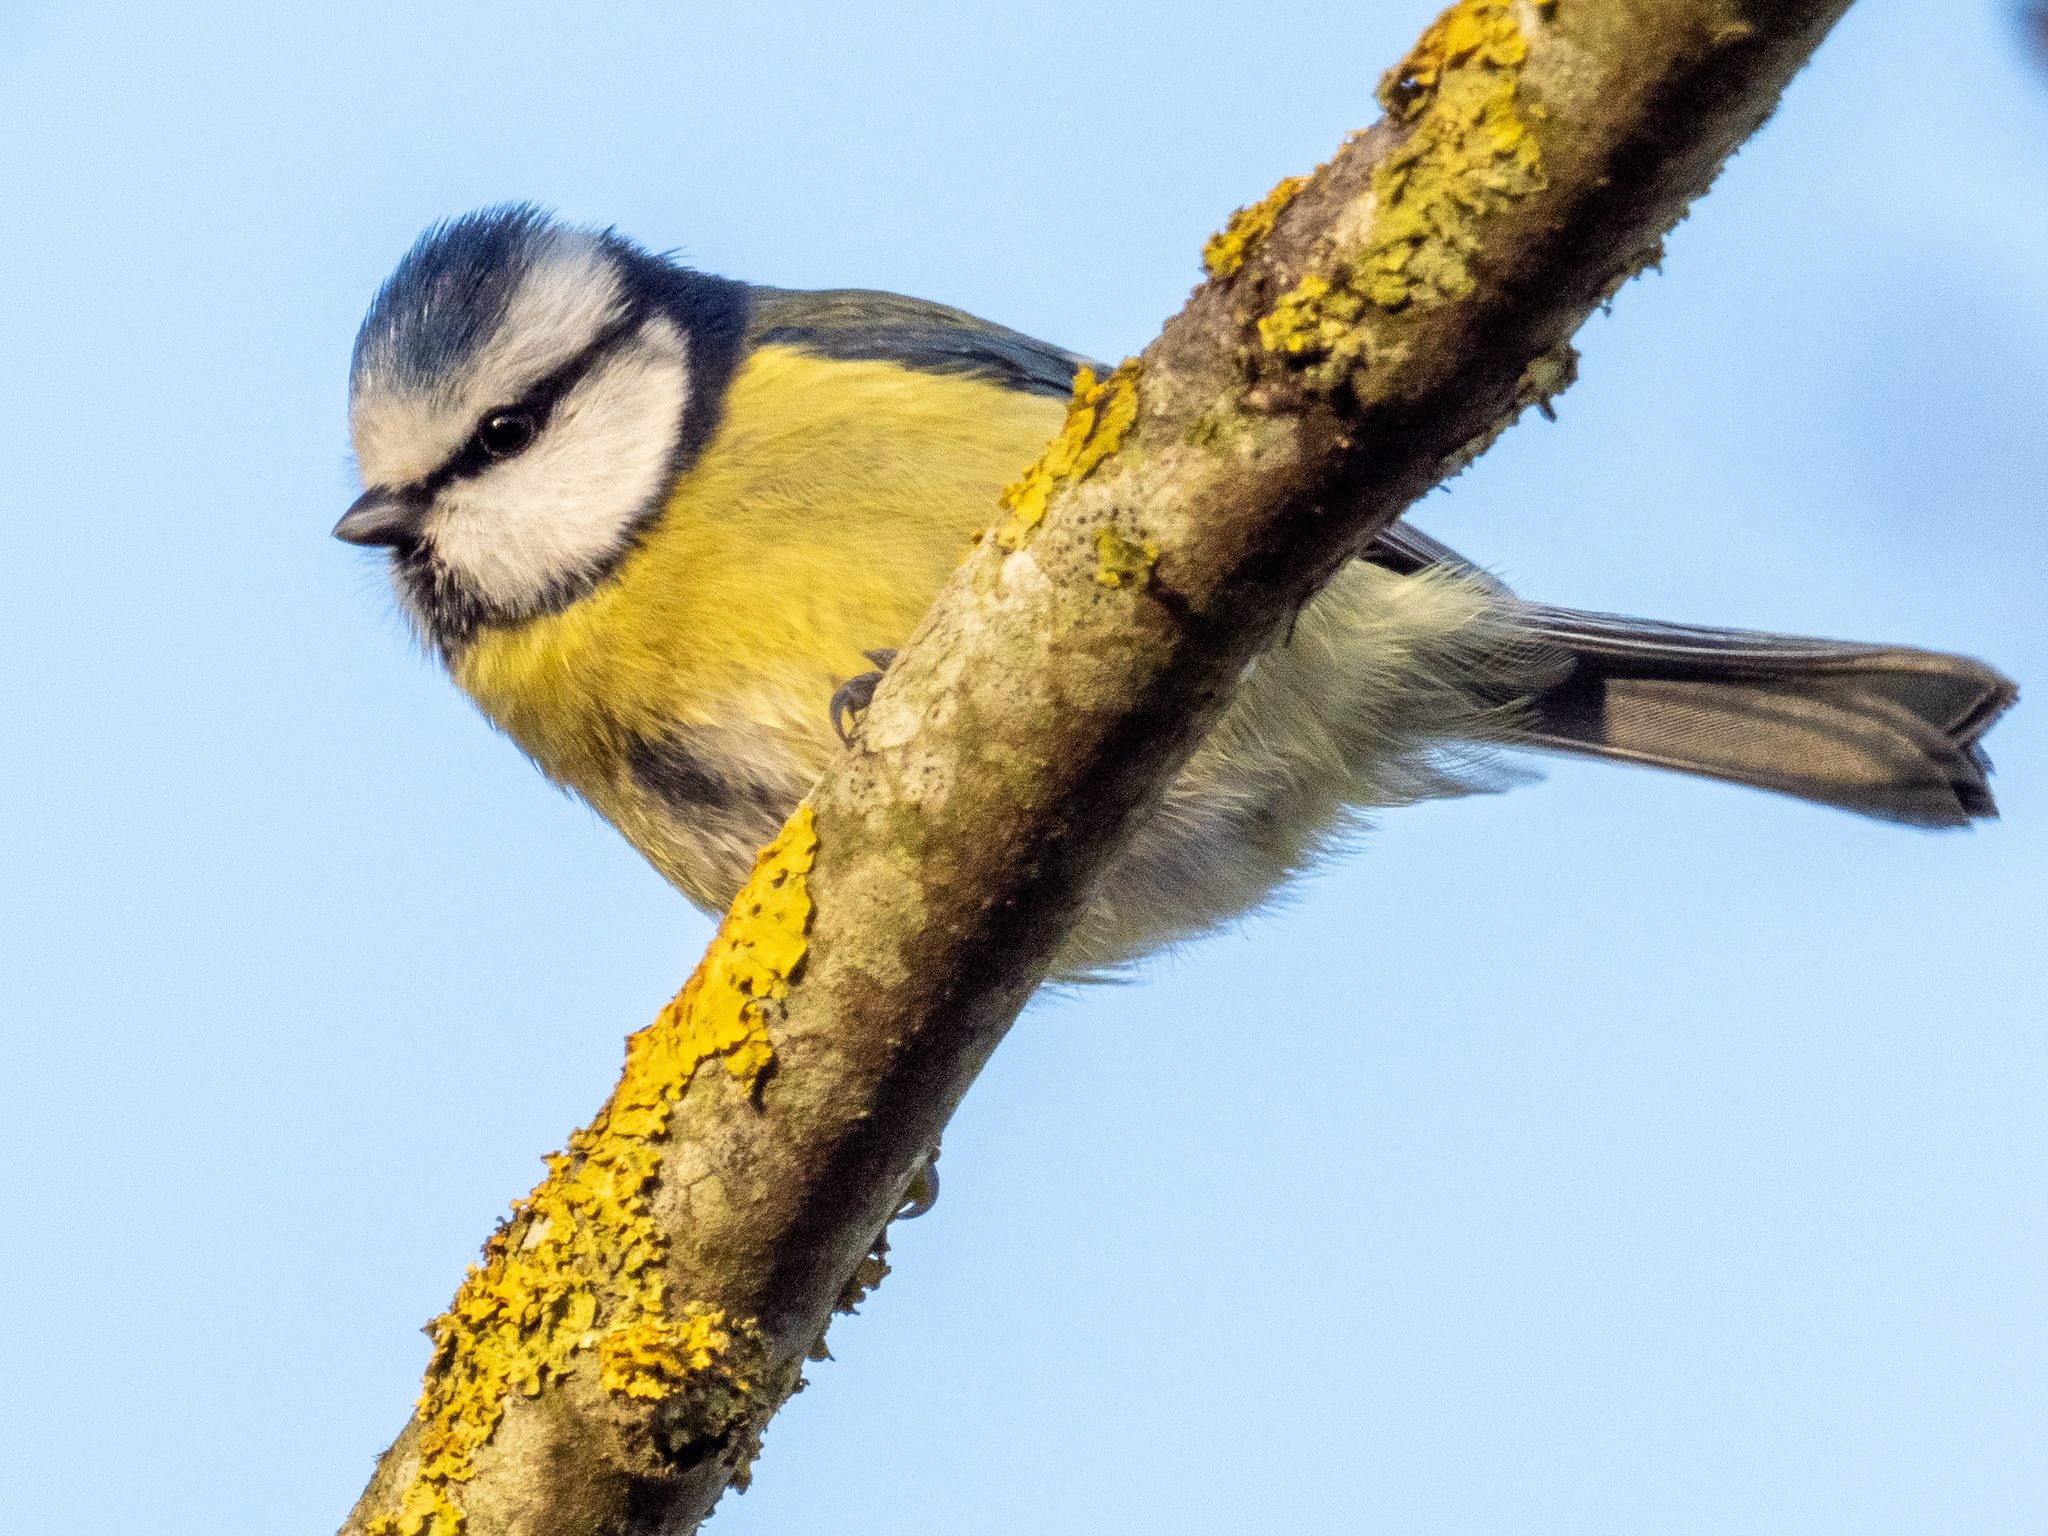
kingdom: Animalia
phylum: Chordata
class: Aves
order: Passeriformes
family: Paridae
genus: Cyanistes
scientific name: Cyanistes caeruleus
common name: Eurasian blue tit
